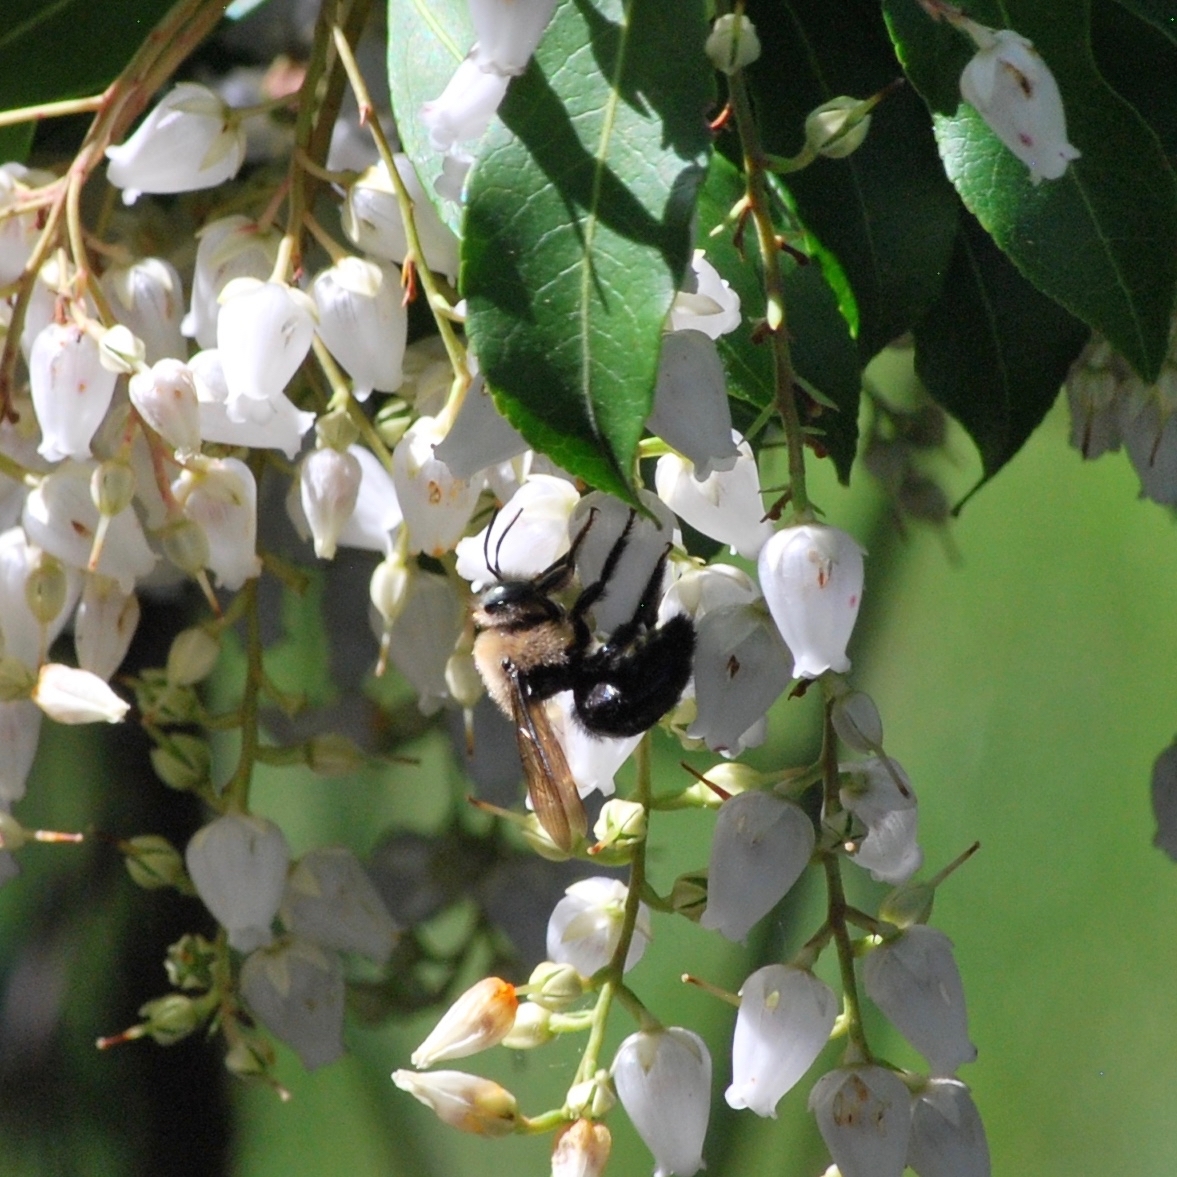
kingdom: Animalia
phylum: Arthropoda
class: Insecta
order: Hymenoptera
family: Apidae
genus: Xylocopa
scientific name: Xylocopa tabaniformis
